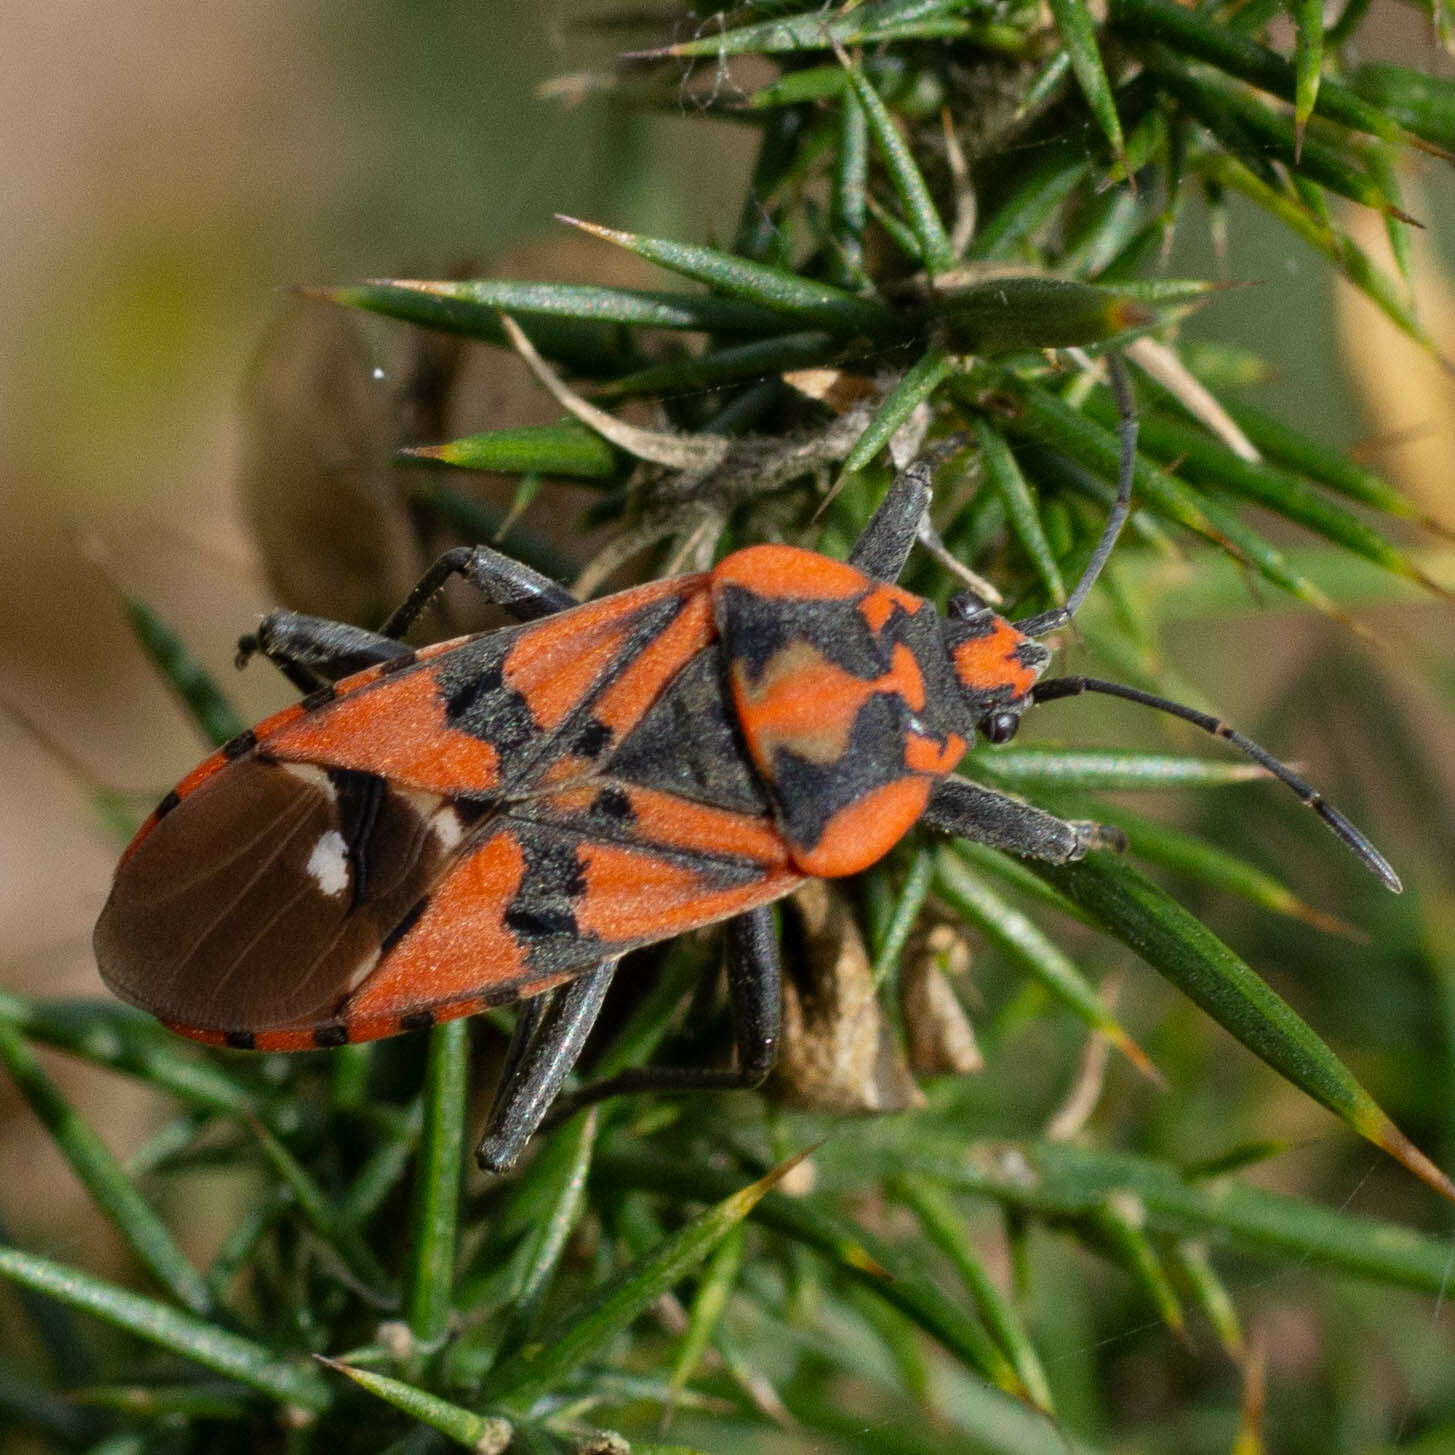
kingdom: Animalia
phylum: Arthropoda
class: Insecta
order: Hemiptera
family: Lygaeidae
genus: Spilostethus
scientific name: Spilostethus pandurus
